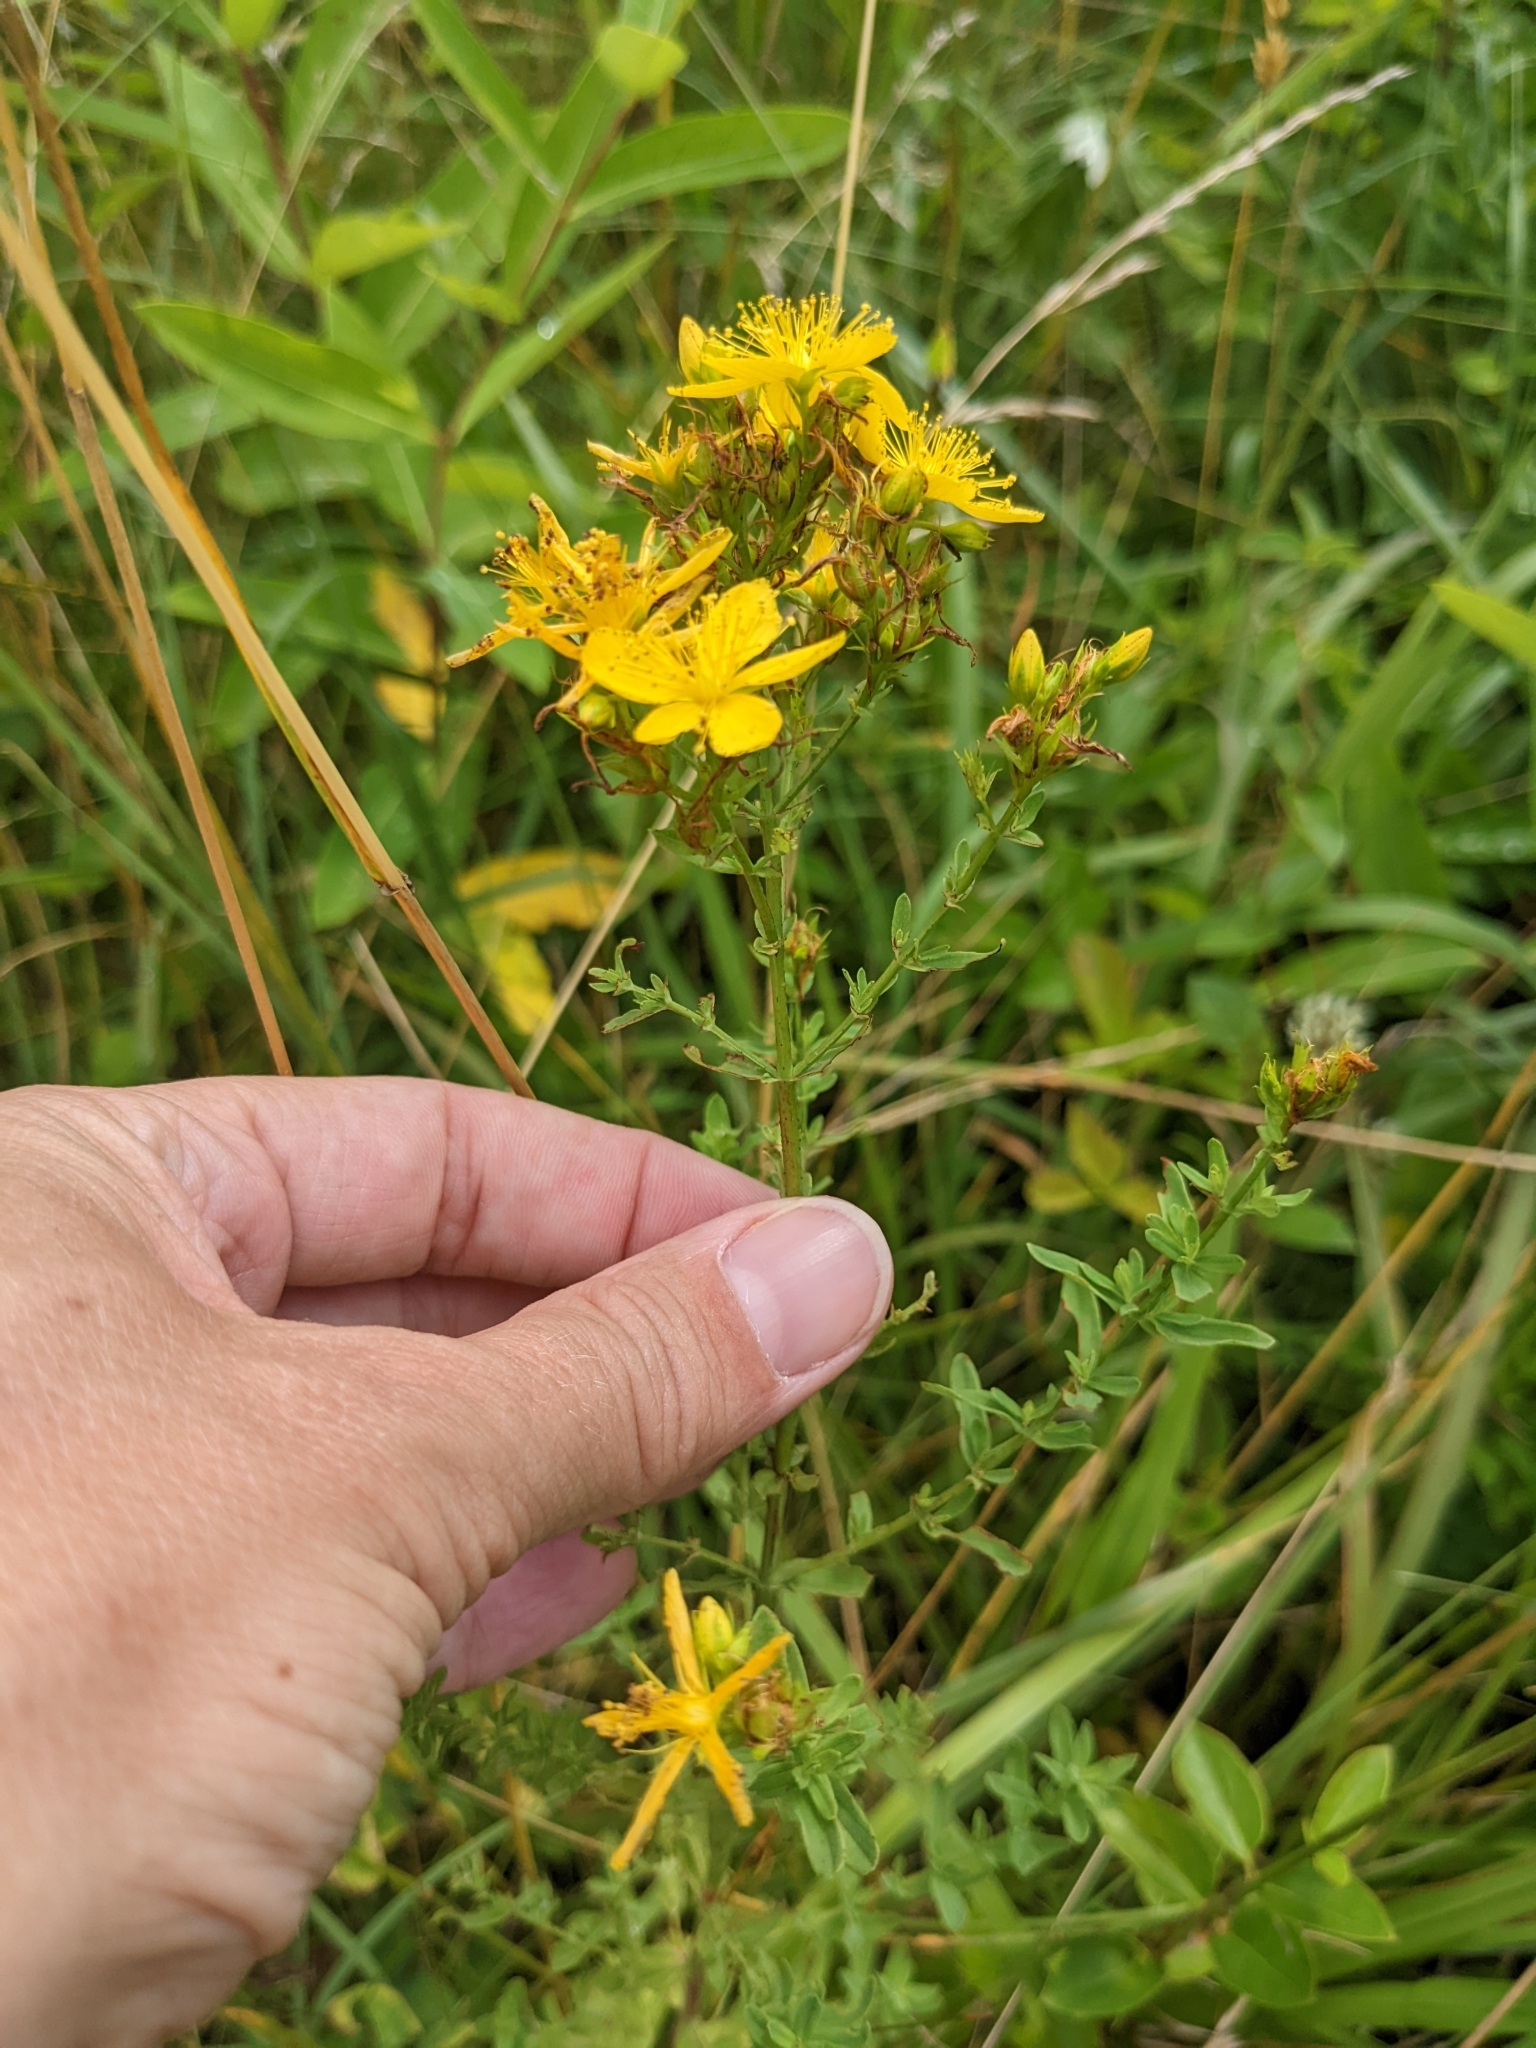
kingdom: Plantae
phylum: Tracheophyta
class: Magnoliopsida
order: Malpighiales
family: Hypericaceae
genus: Hypericum
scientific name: Hypericum perforatum
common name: Common st. johnswort
